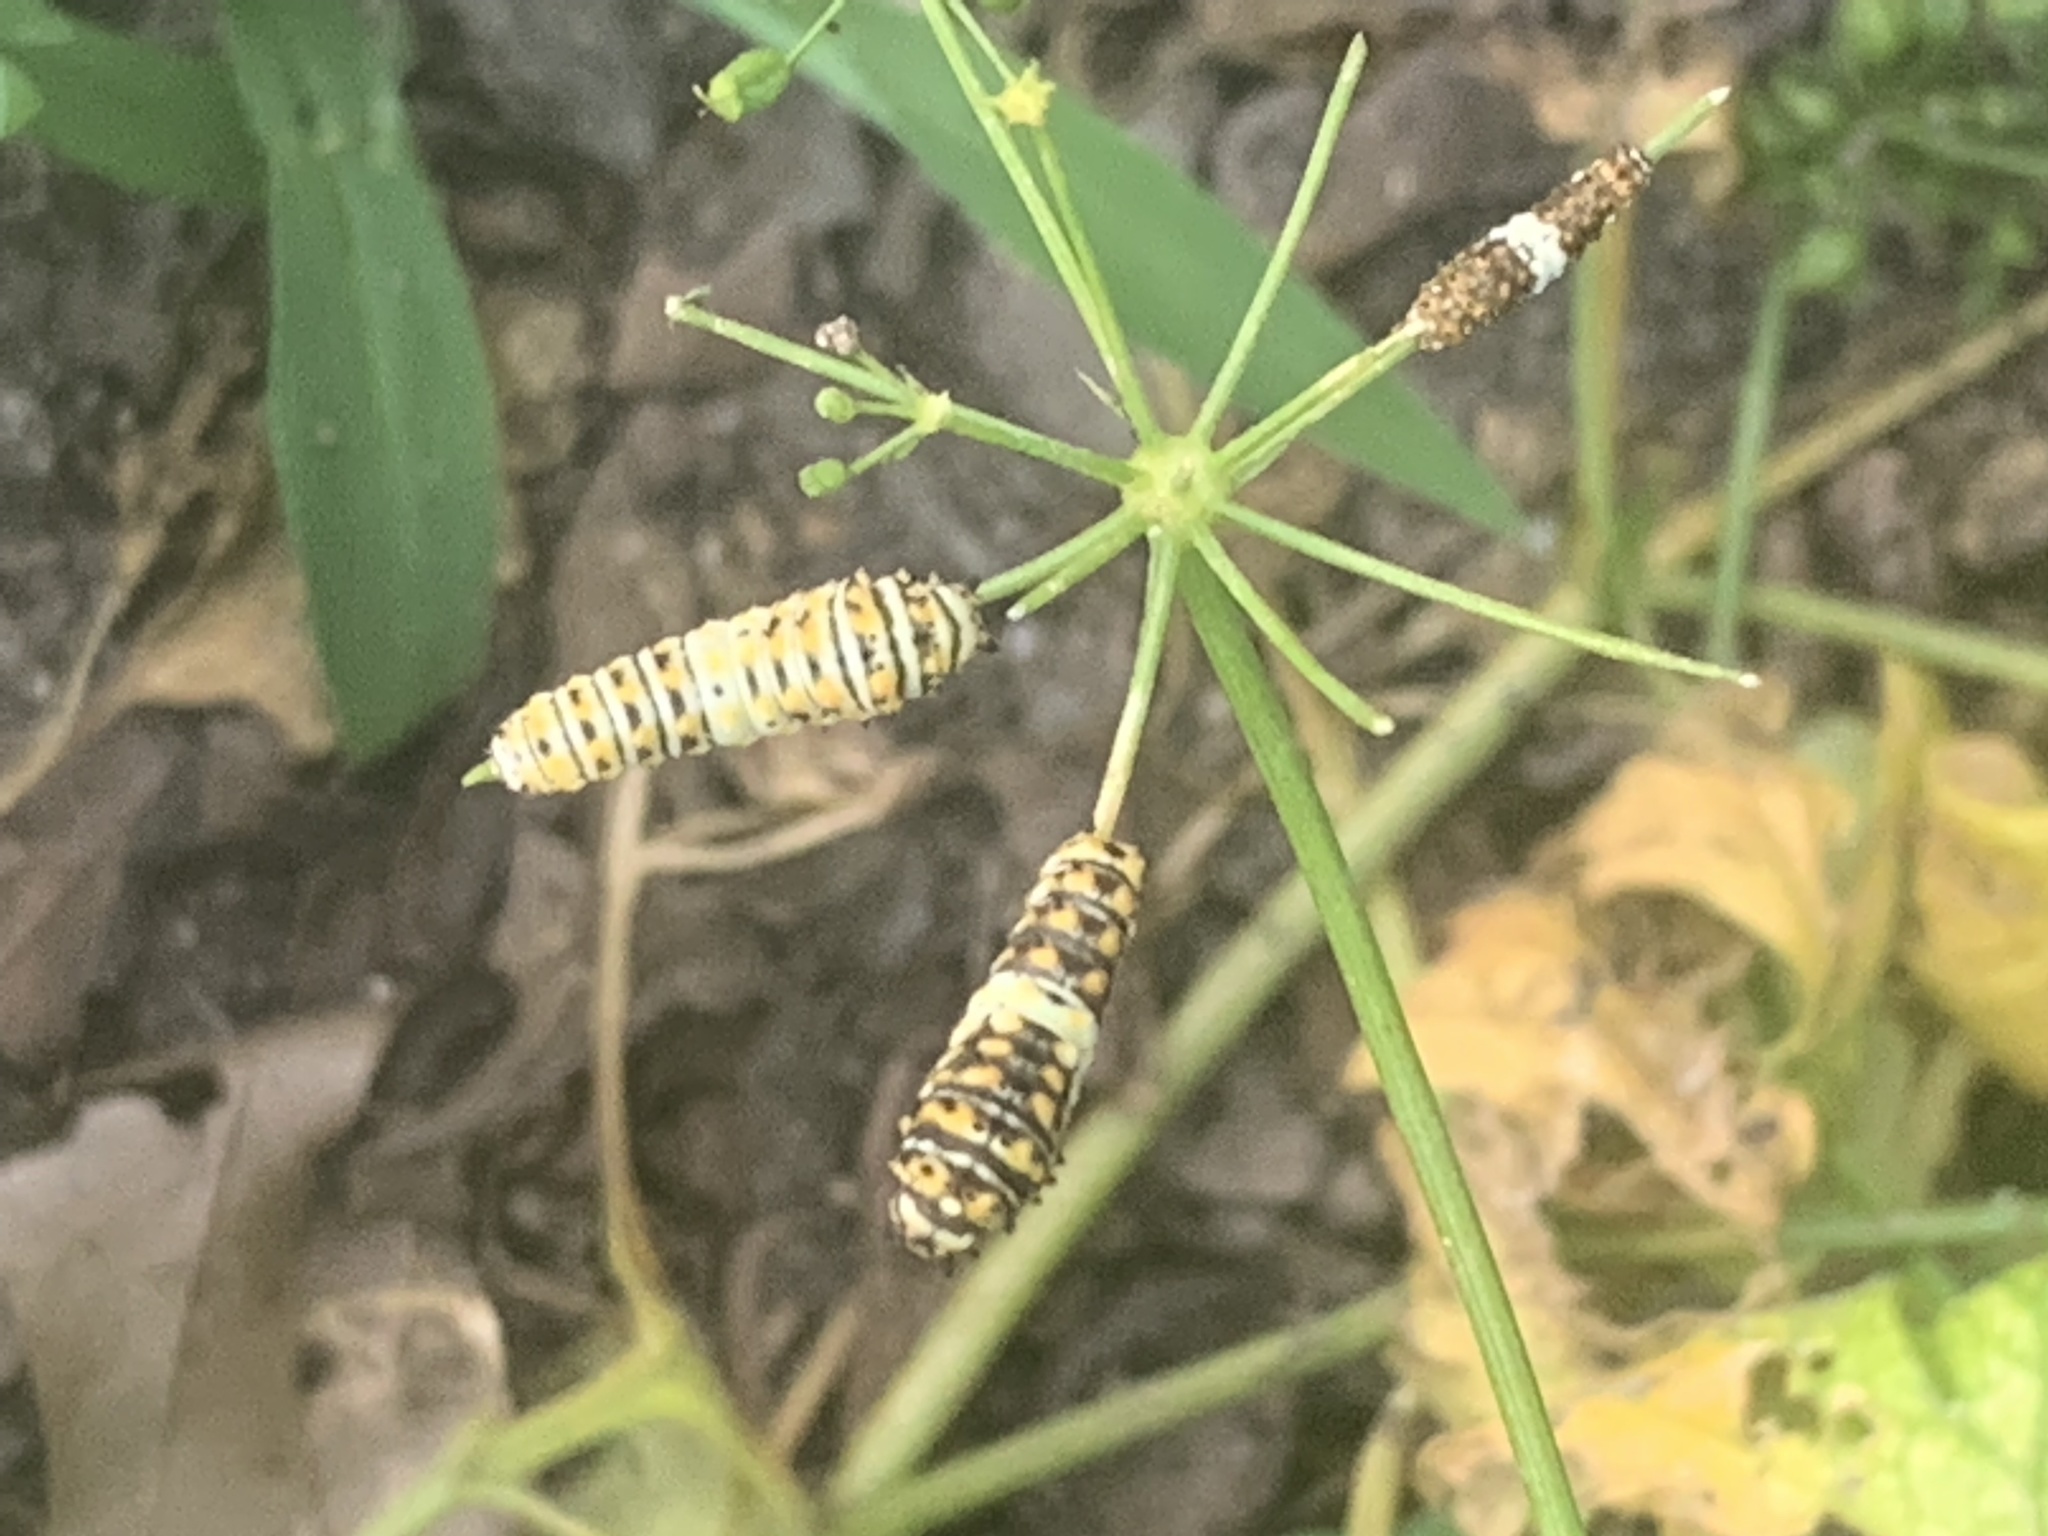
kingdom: Animalia
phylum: Arthropoda
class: Insecta
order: Lepidoptera
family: Papilionidae
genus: Papilio
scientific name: Papilio polyxenes
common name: Black swallowtail
